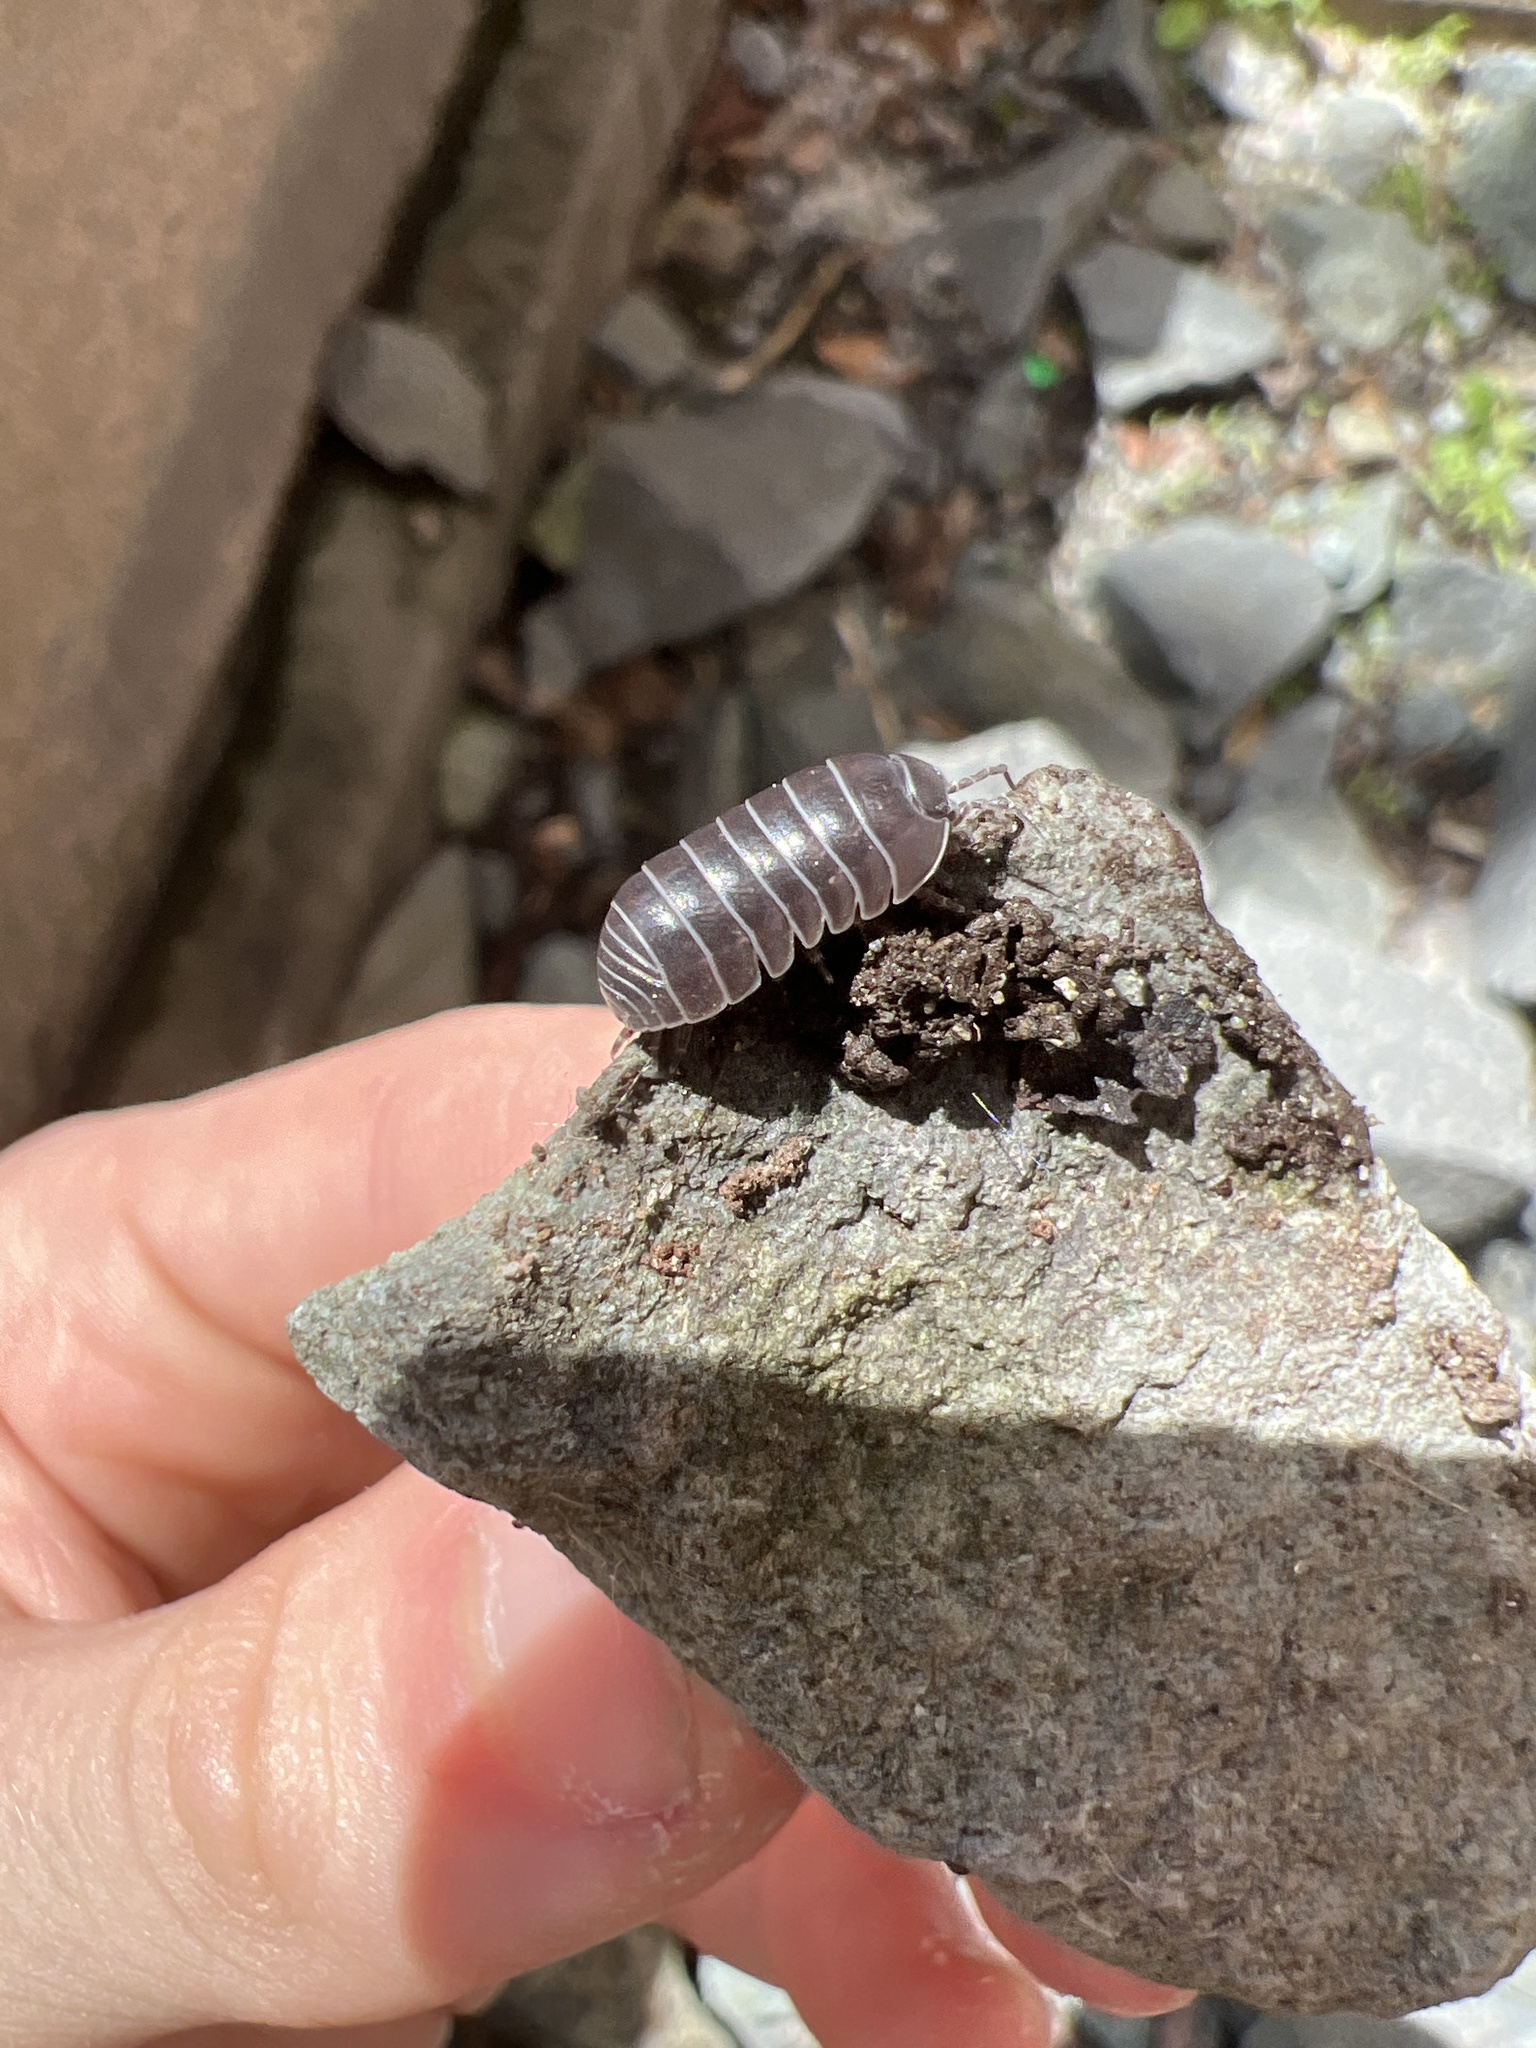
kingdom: Animalia
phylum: Arthropoda
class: Malacostraca
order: Isopoda
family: Armadillidiidae
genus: Armadillidium
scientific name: Armadillidium vulgare
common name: Common pill woodlouse
